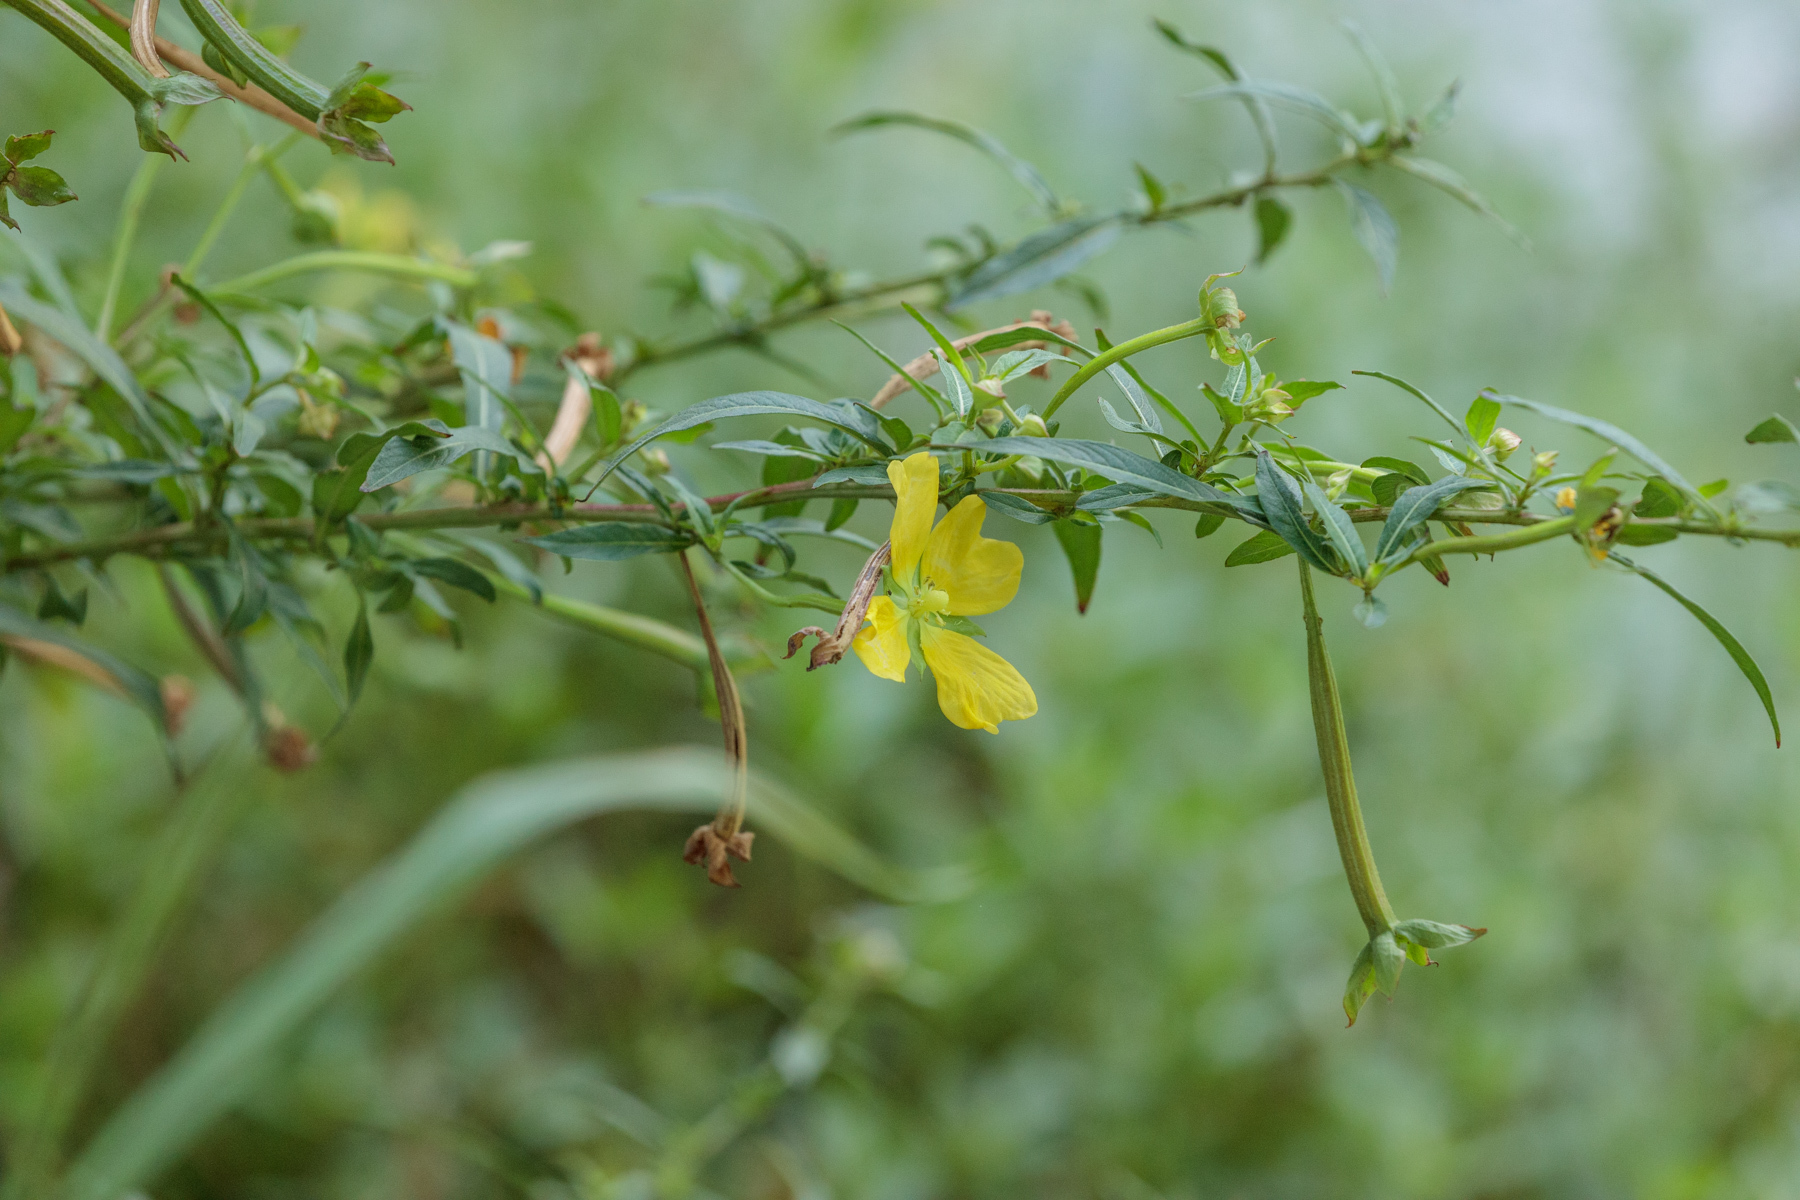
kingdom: Plantae
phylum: Tracheophyta
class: Magnoliopsida
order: Myrtales
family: Onagraceae
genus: Ludwigia
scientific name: Ludwigia octovalvis
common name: Water-primrose
